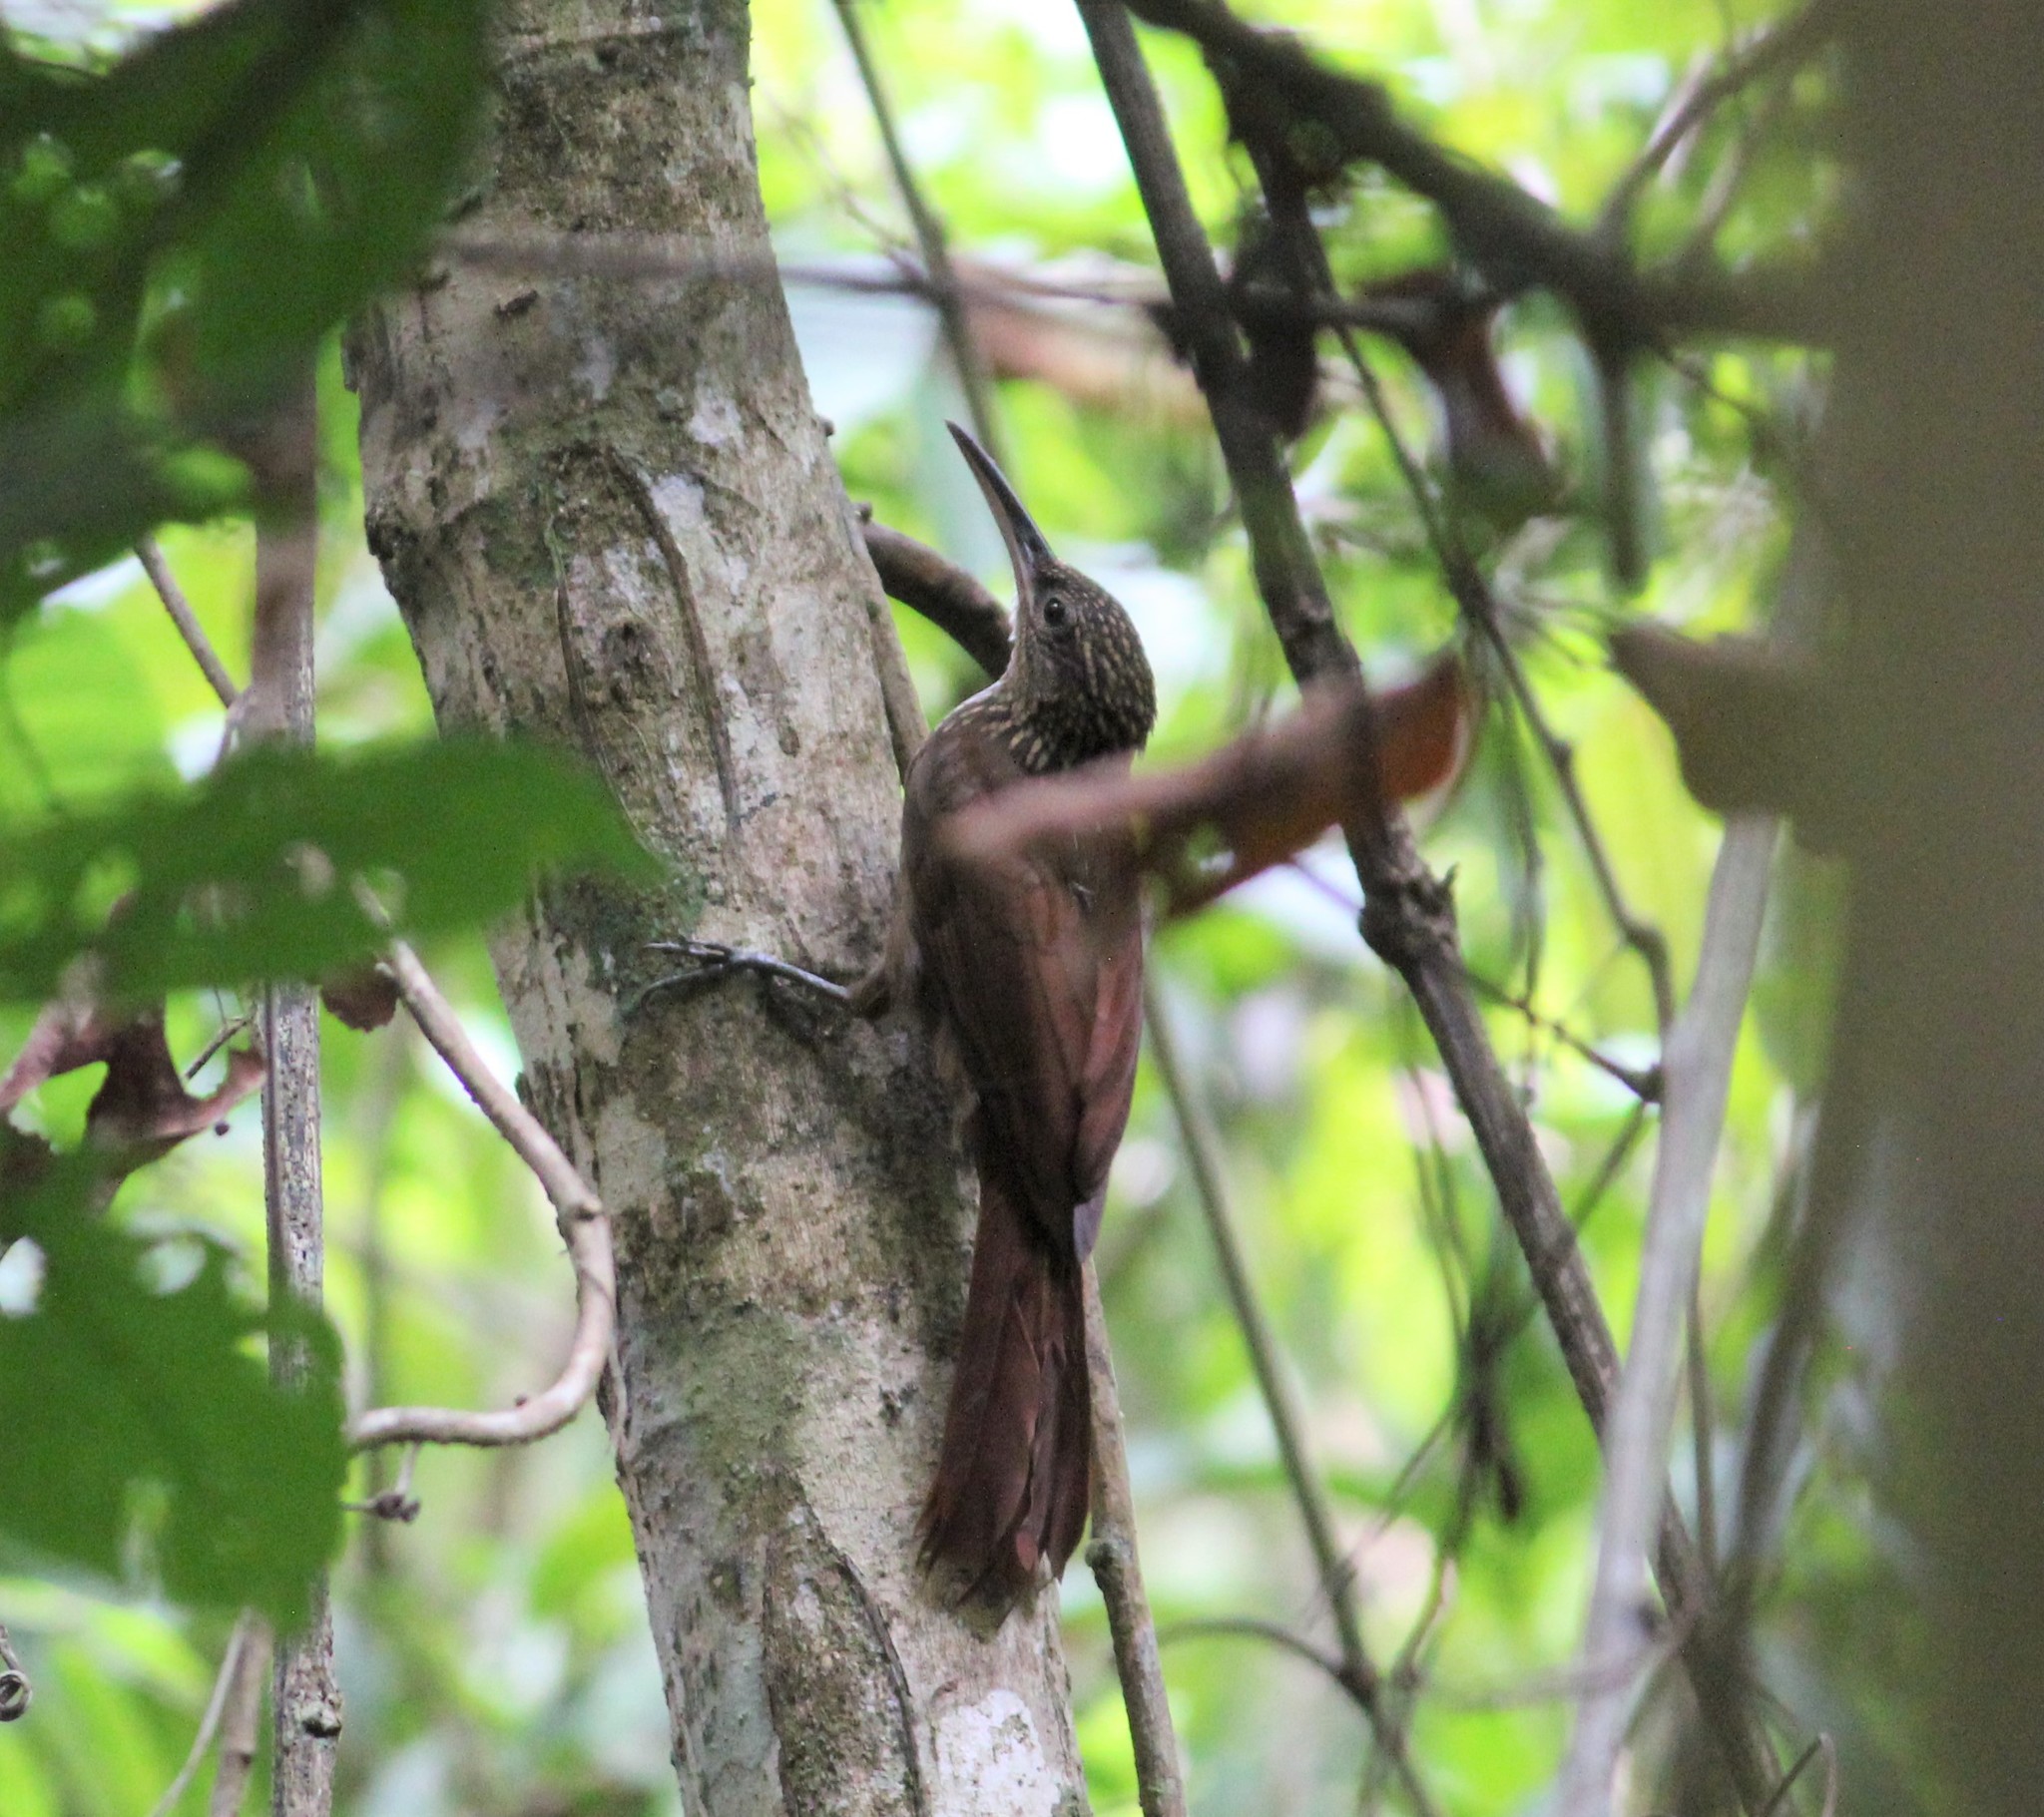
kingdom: Animalia
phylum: Chordata
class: Aves
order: Passeriformes
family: Furnariidae
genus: Xiphorhynchus
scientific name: Xiphorhynchus susurrans
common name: Cocoa woodcreeper
